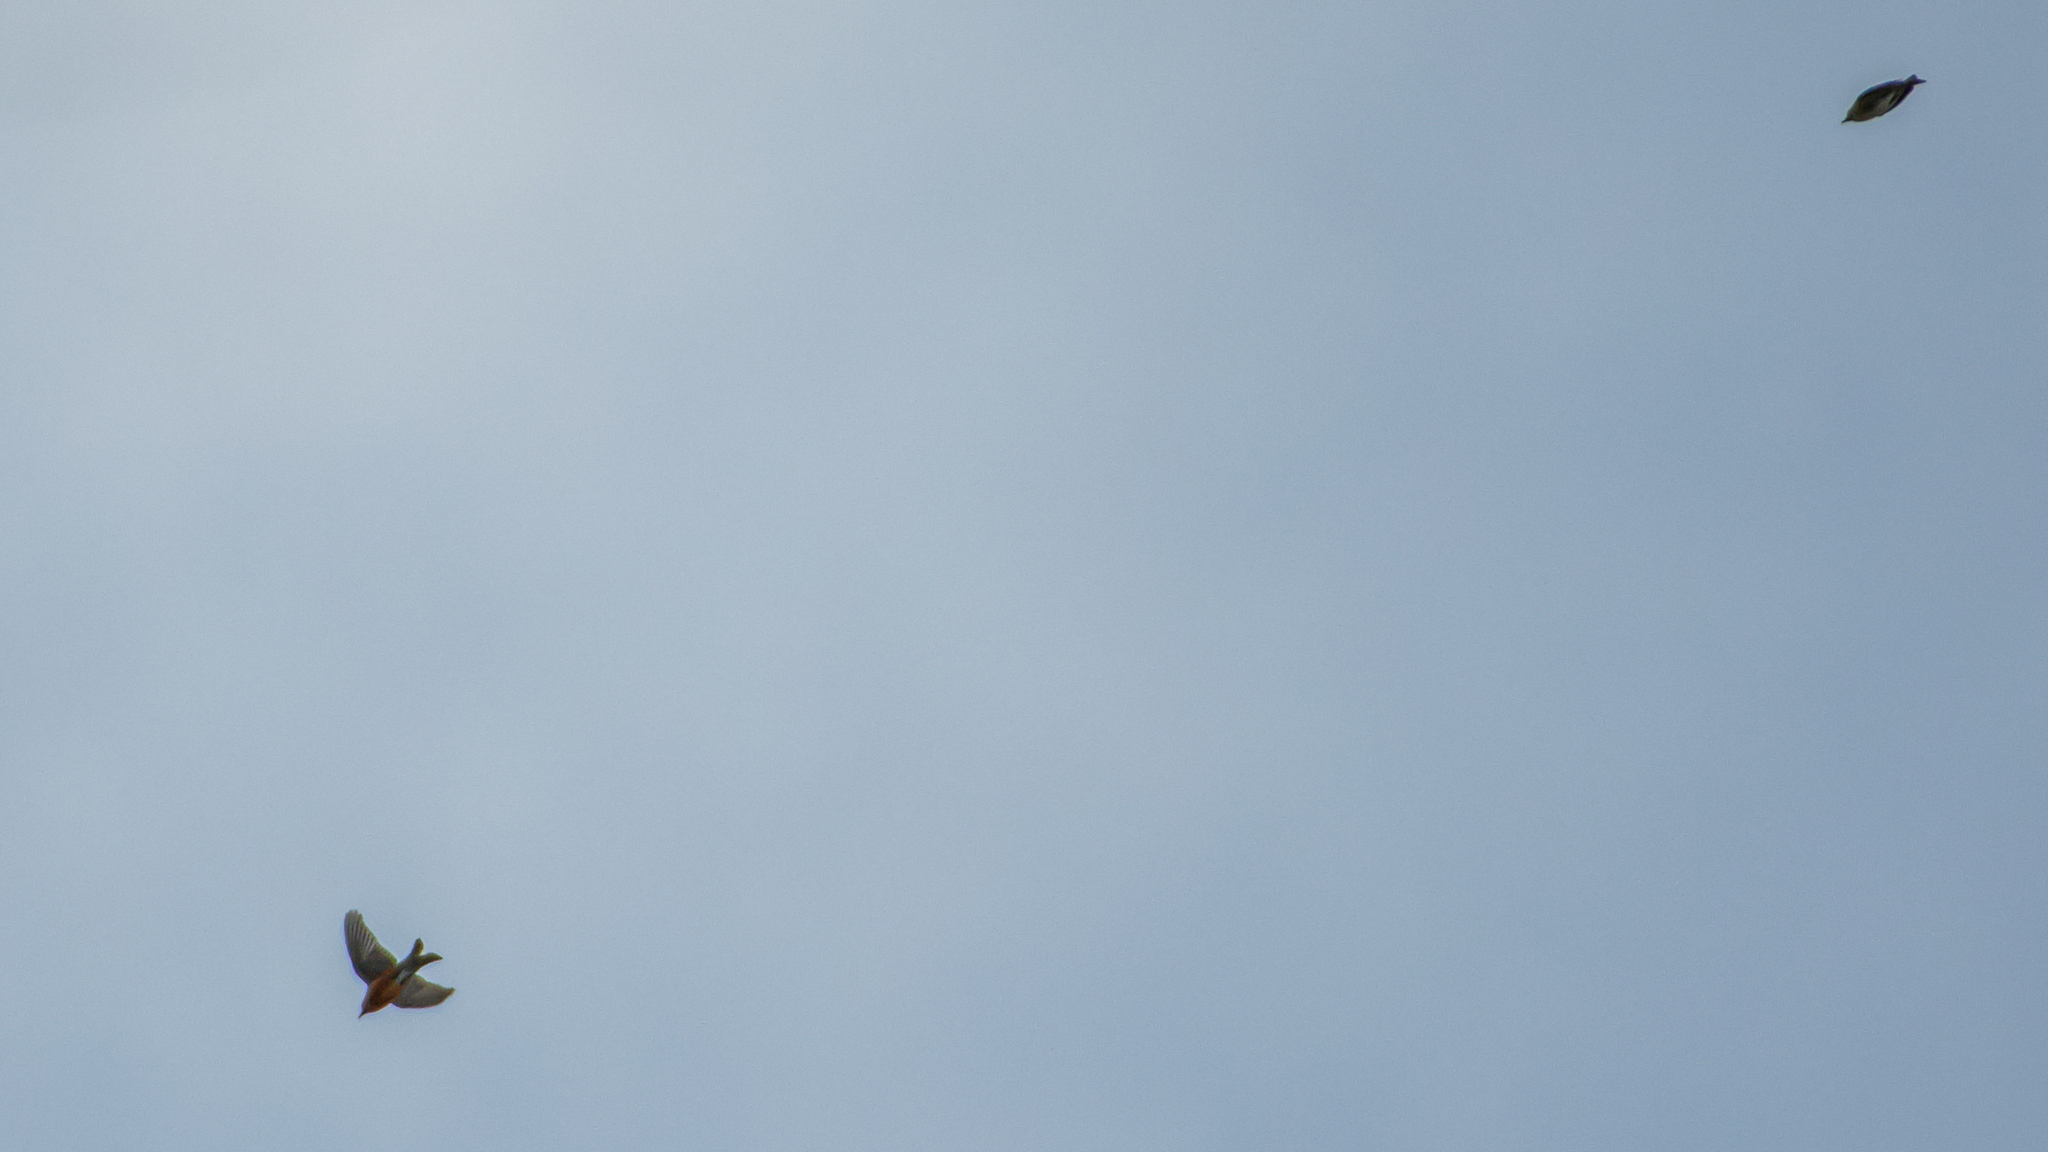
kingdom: Animalia
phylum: Chordata
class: Aves
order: Passeriformes
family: Fringillidae
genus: Loxia
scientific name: Loxia curvirostra
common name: Red crossbill
